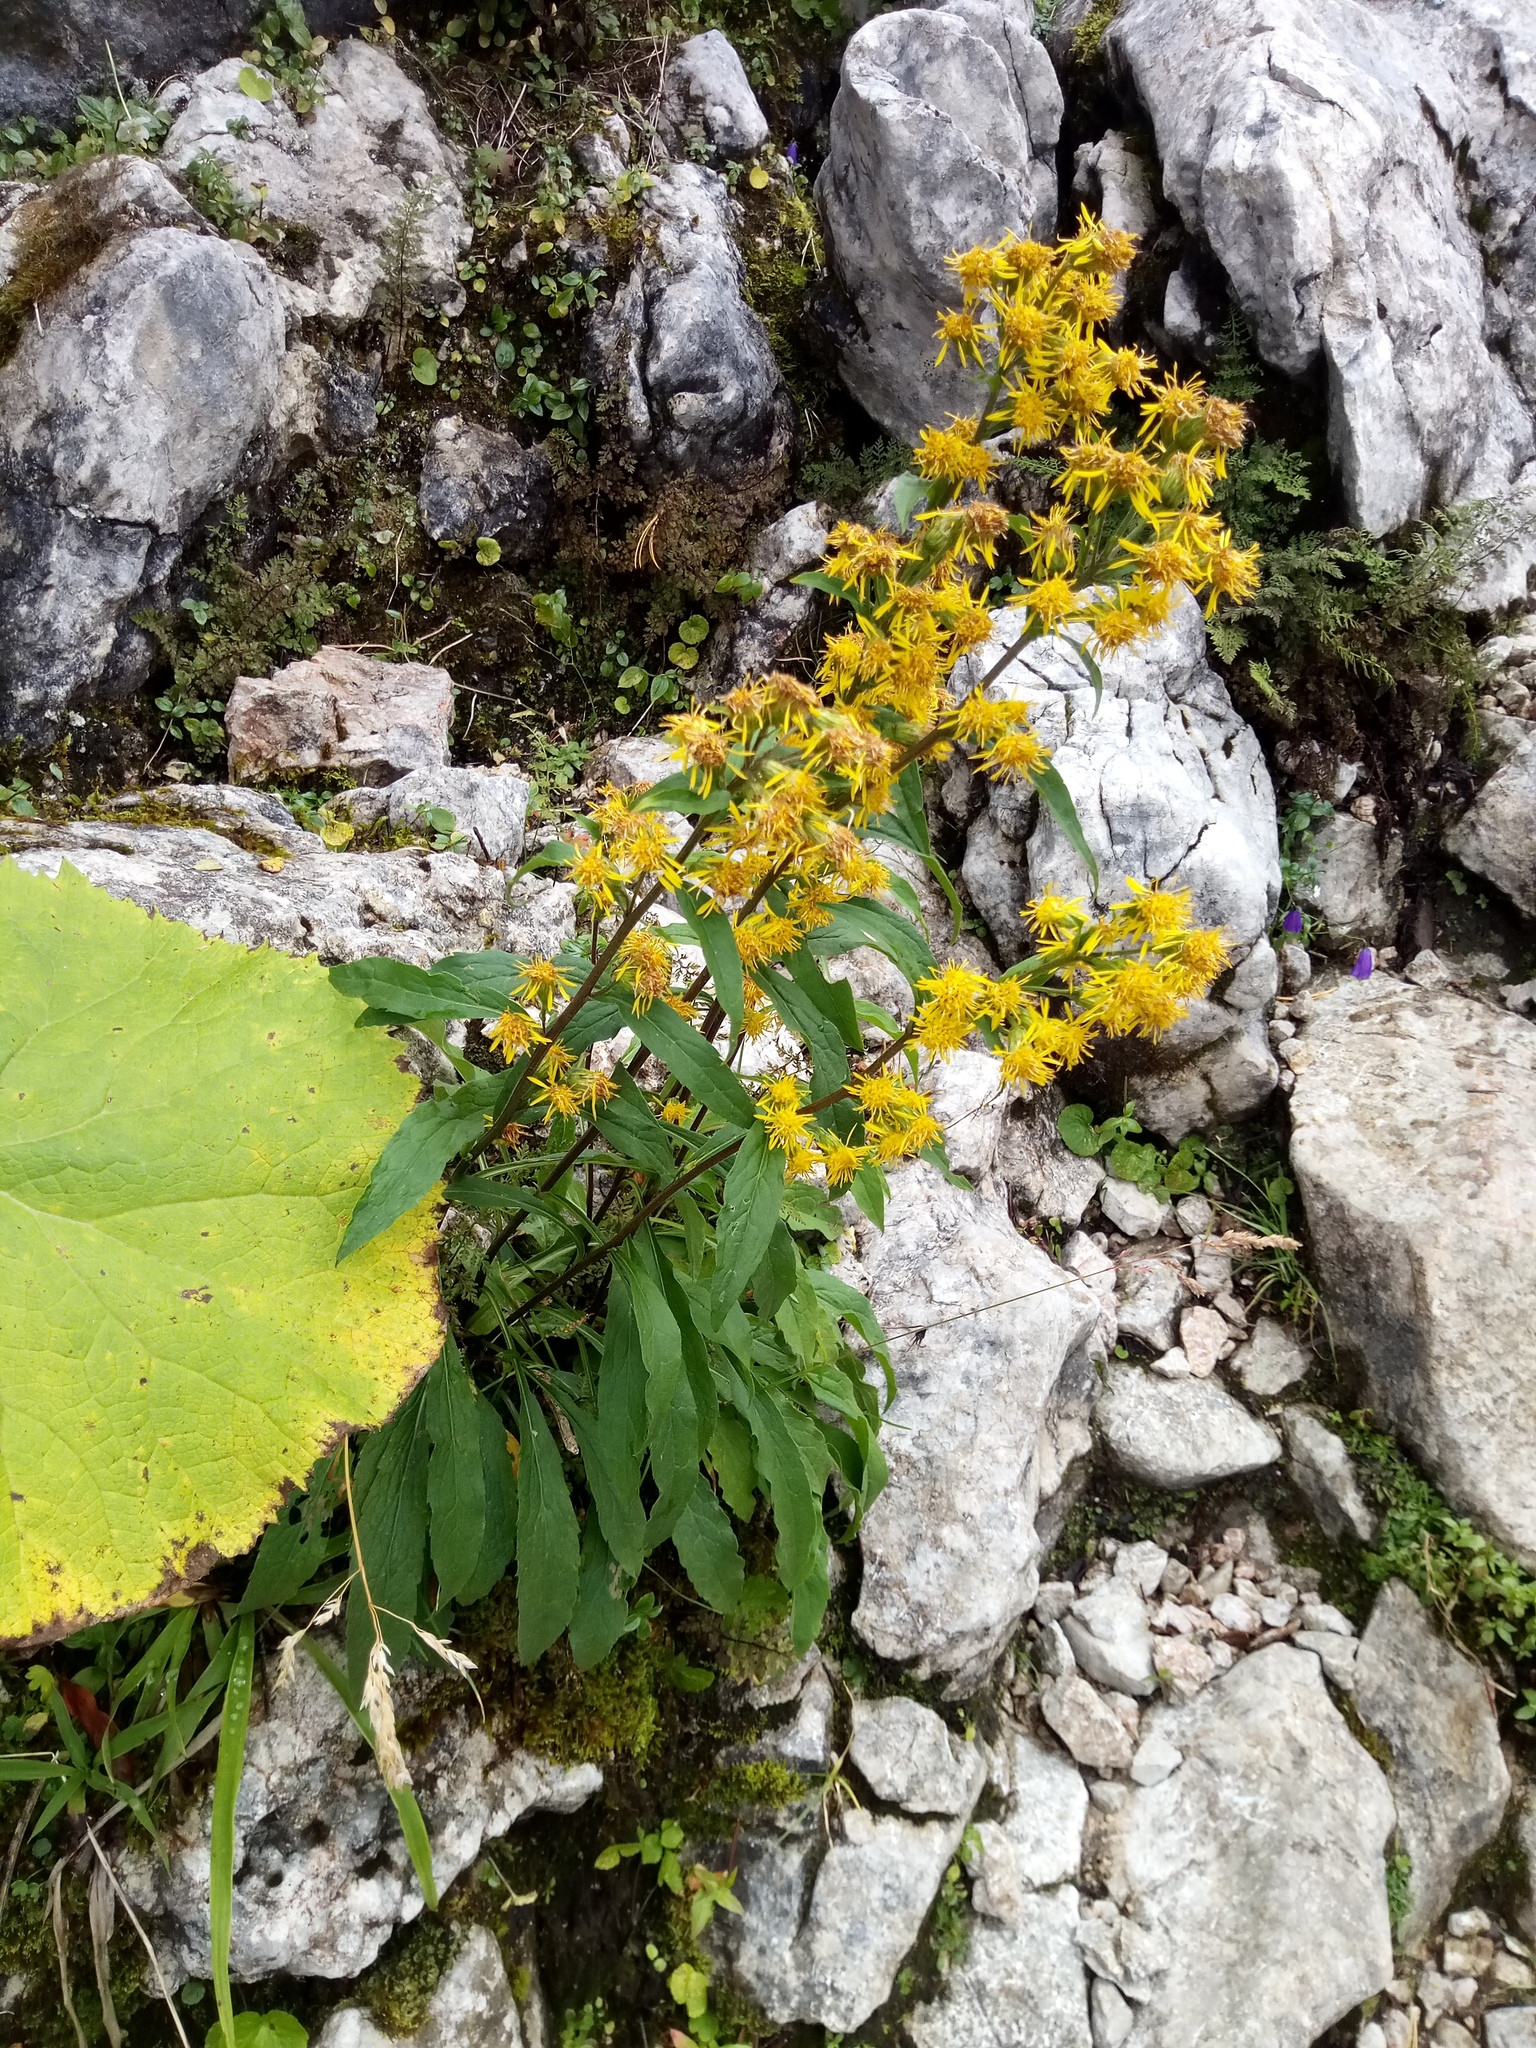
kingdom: Plantae
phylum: Tracheophyta
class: Magnoliopsida
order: Asterales
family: Asteraceae
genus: Solidago
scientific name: Solidago virgaurea
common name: Goldenrod
